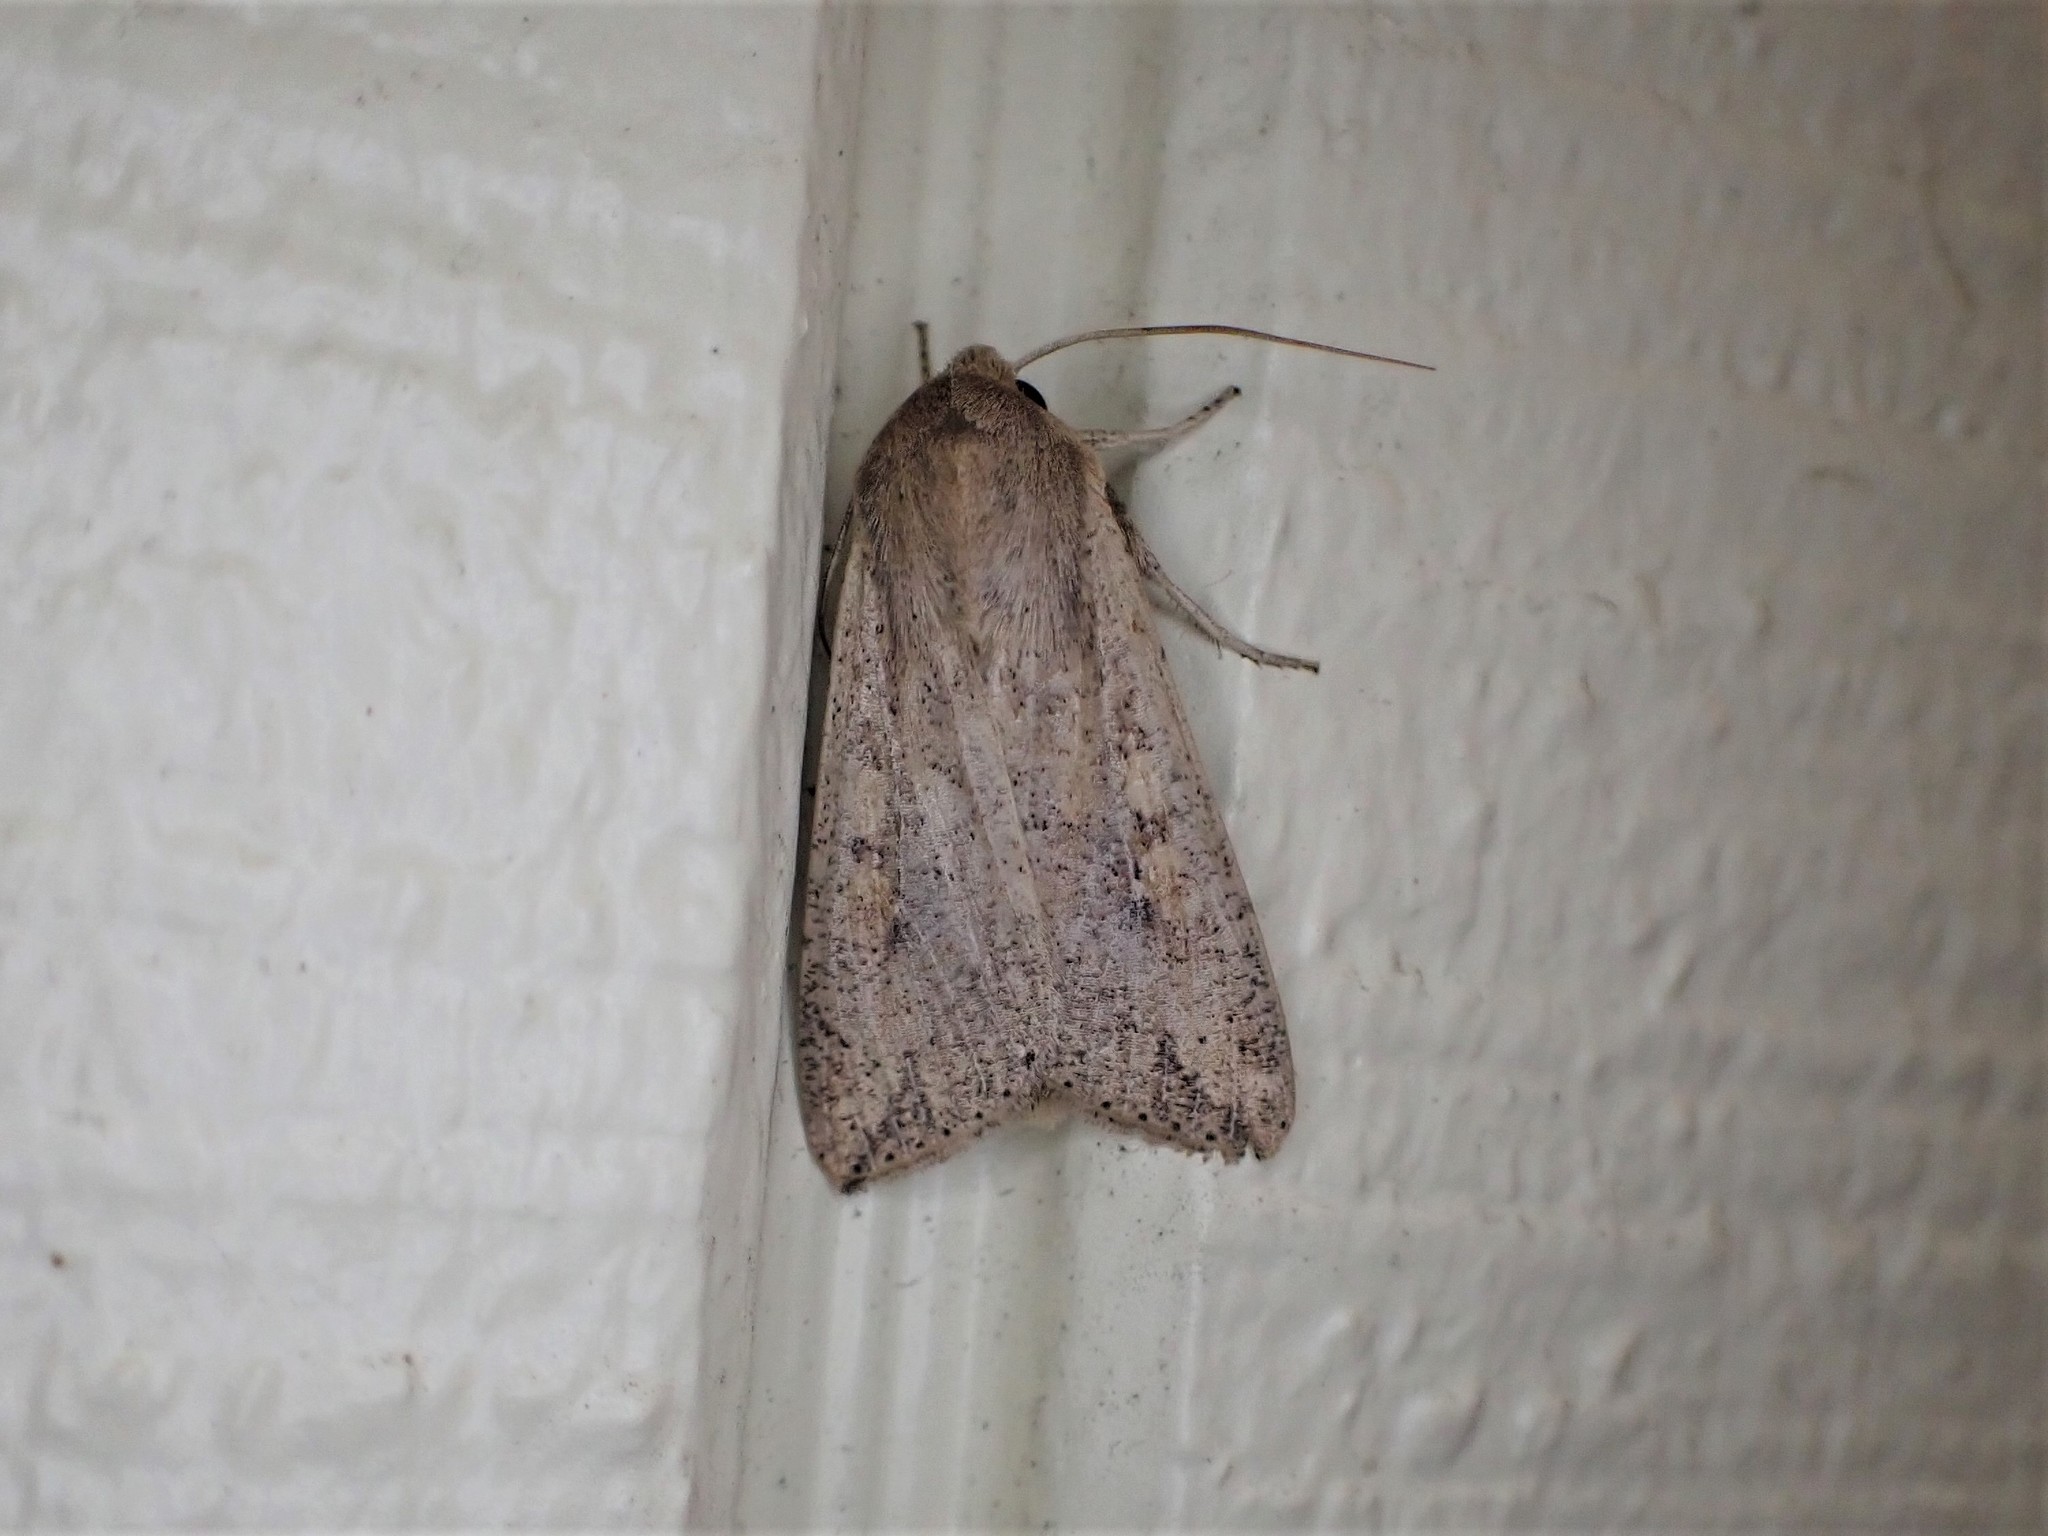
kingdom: Animalia
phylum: Arthropoda
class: Insecta
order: Lepidoptera
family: Noctuidae
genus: Mythimna
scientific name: Mythimna separata
